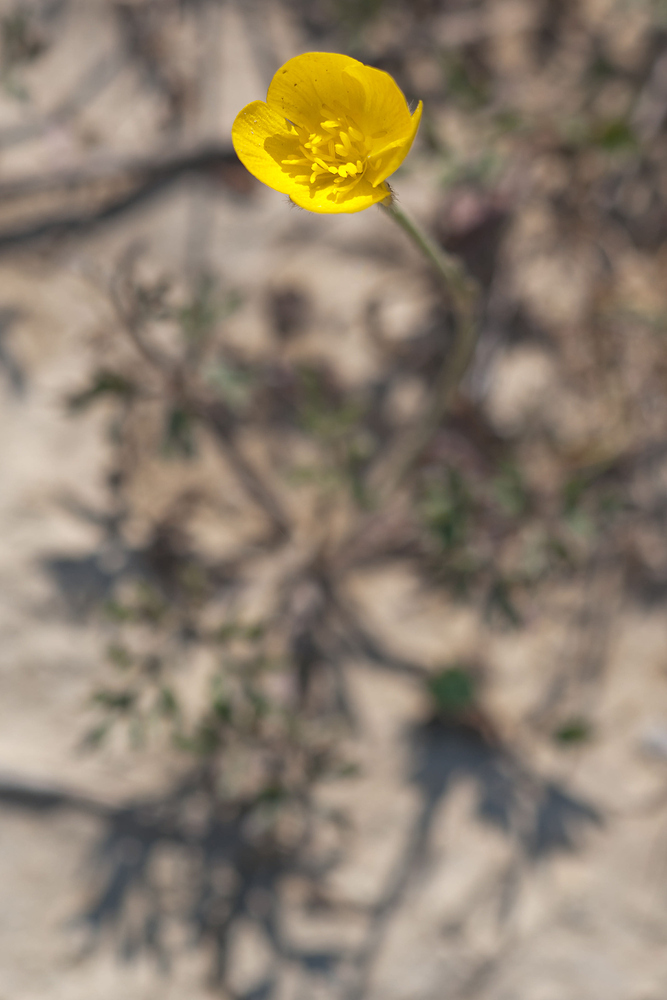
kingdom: Plantae
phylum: Tracheophyta
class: Magnoliopsida
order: Ranunculales
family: Ranunculaceae
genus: Ranunculus
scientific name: Ranunculus paludosus
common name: Jersey buttercup
